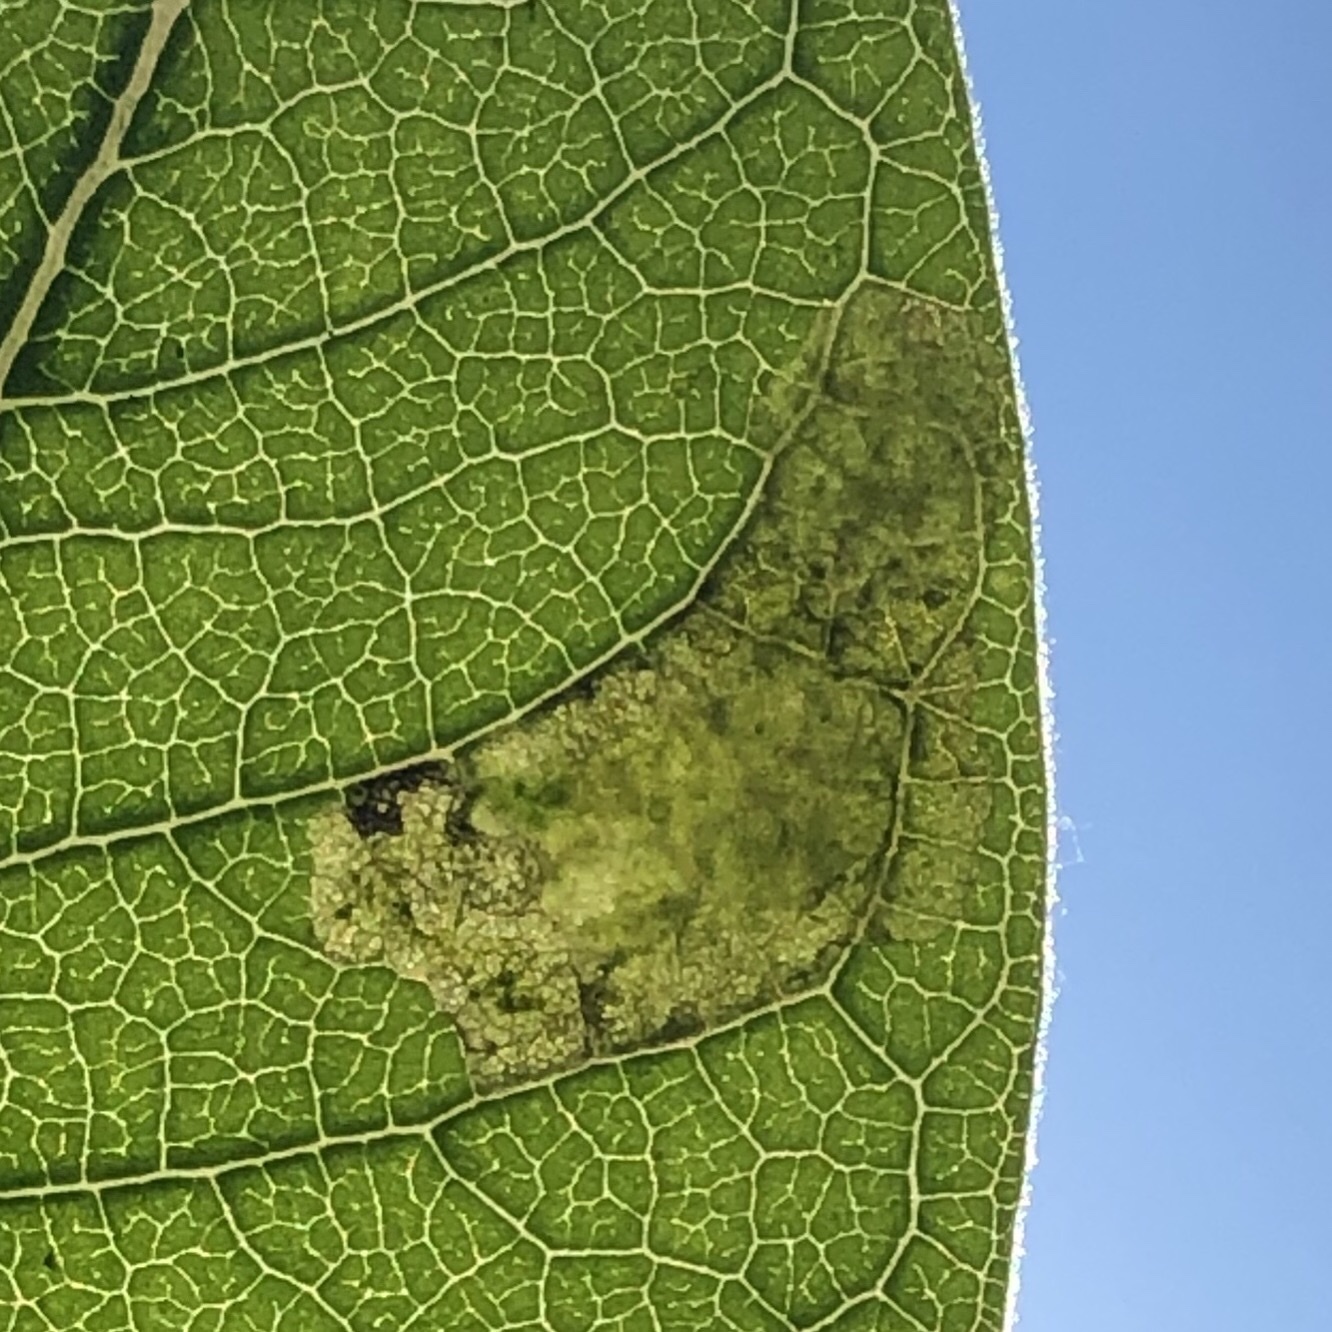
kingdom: Animalia
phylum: Arthropoda
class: Insecta
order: Diptera
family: Agromyzidae
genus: Liriomyza
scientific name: Liriomyza asclepiadis
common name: Milkweed leaf-miner fly
